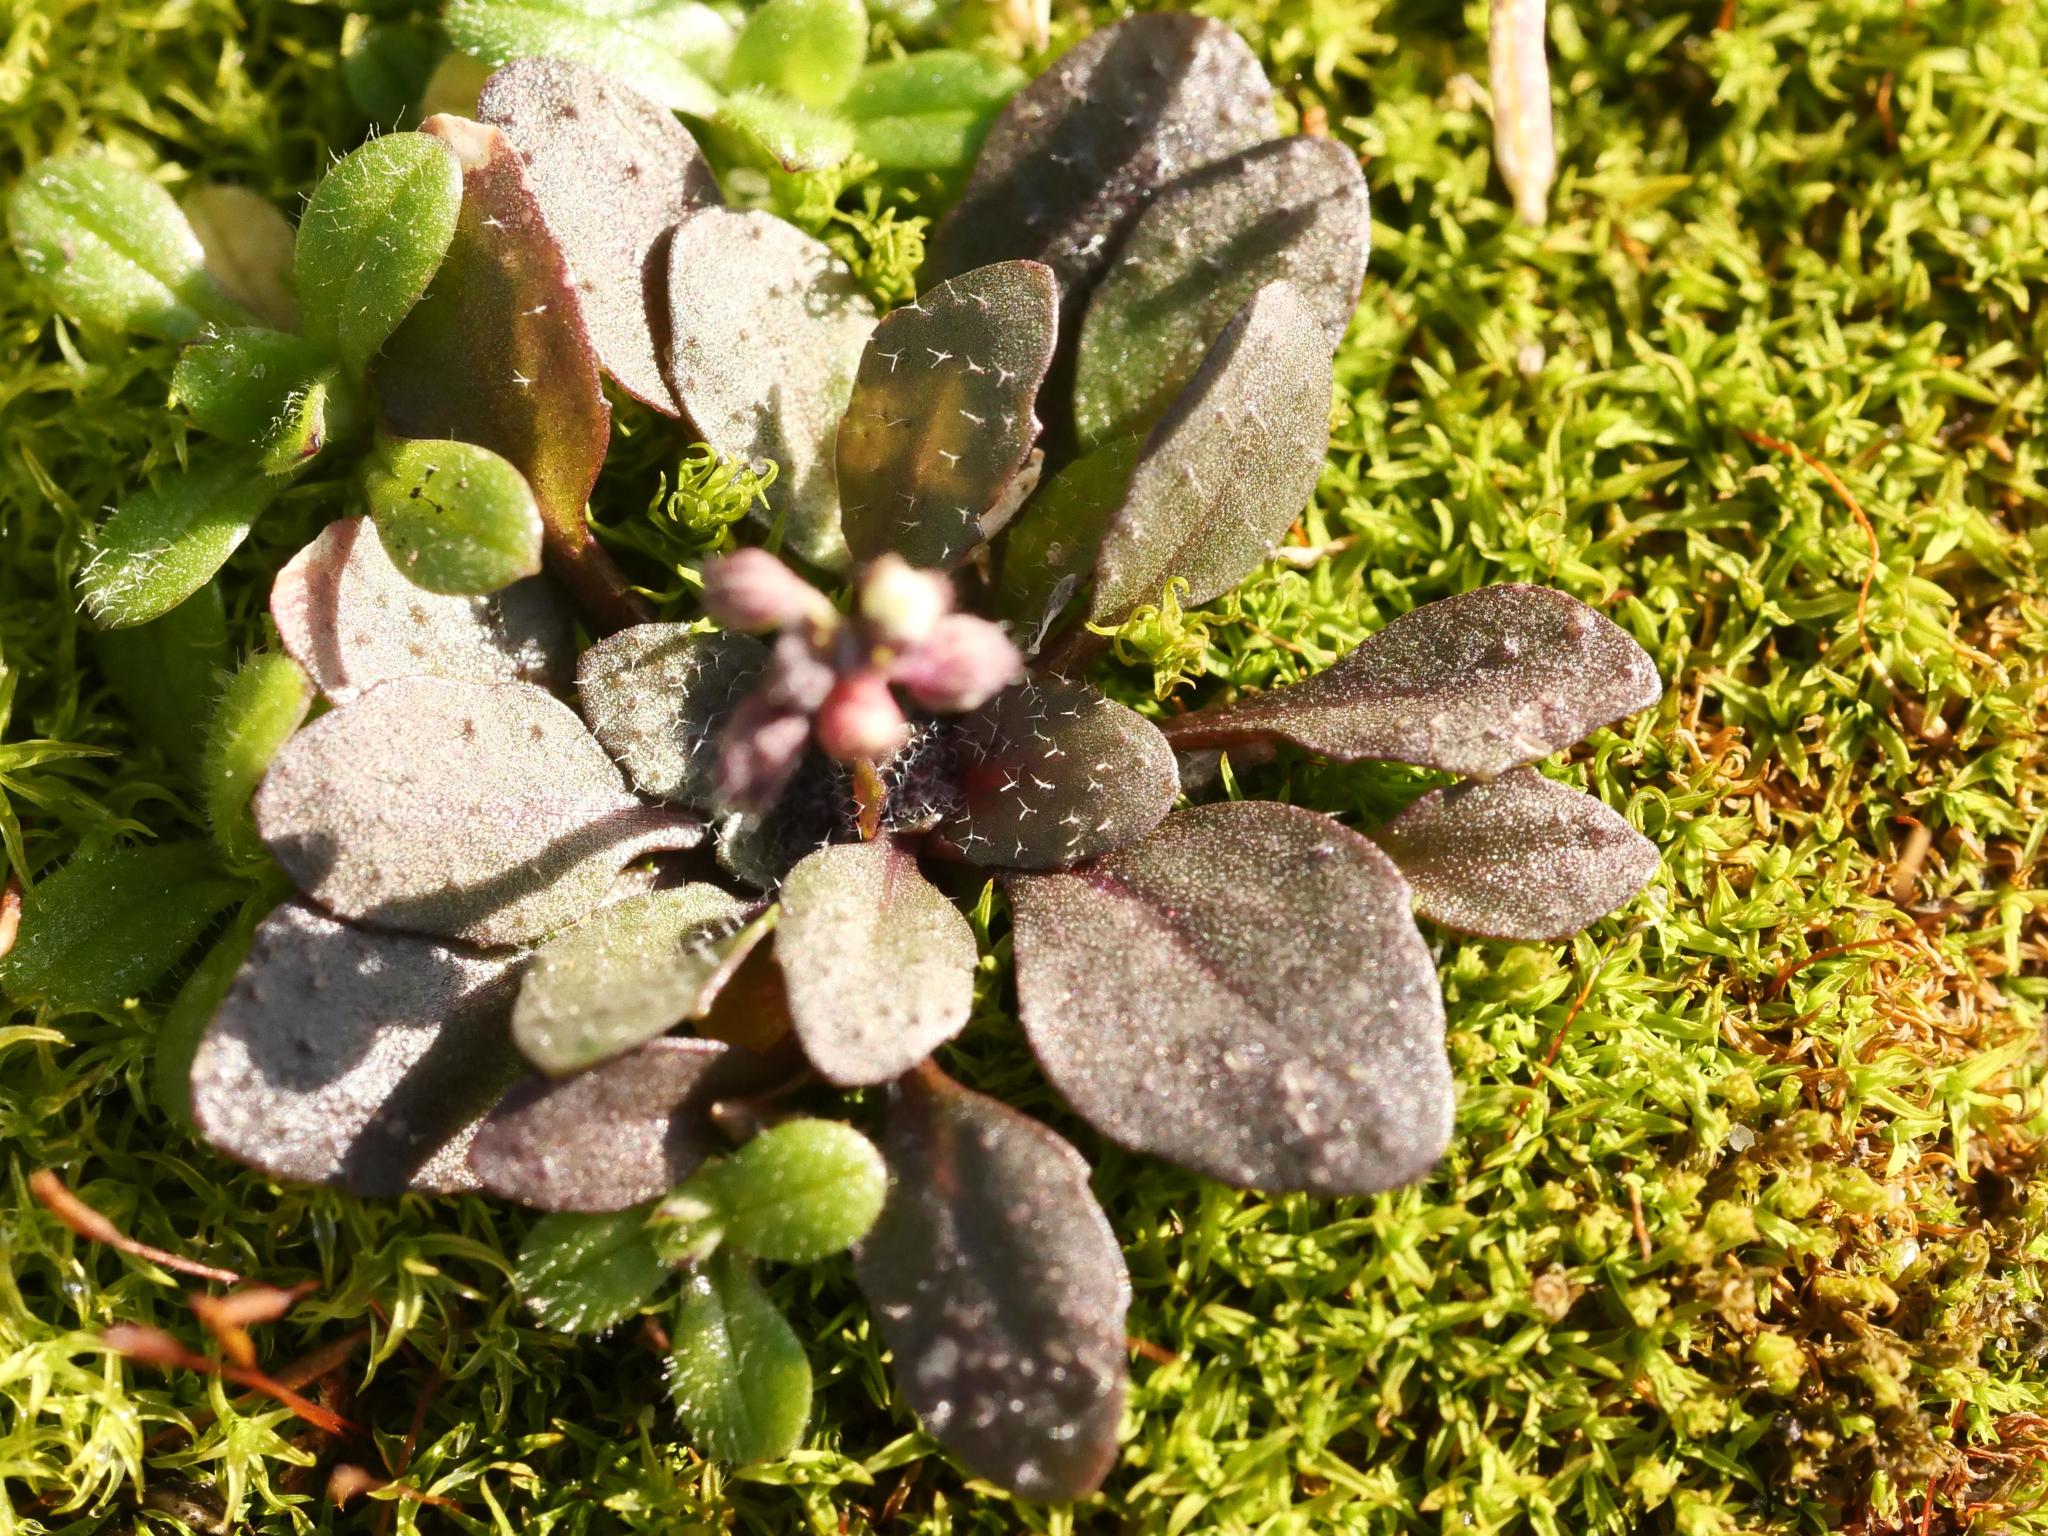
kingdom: Plantae
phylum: Tracheophyta
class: Magnoliopsida
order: Brassicales
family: Brassicaceae
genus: Draba
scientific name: Draba verna
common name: Spring draba
